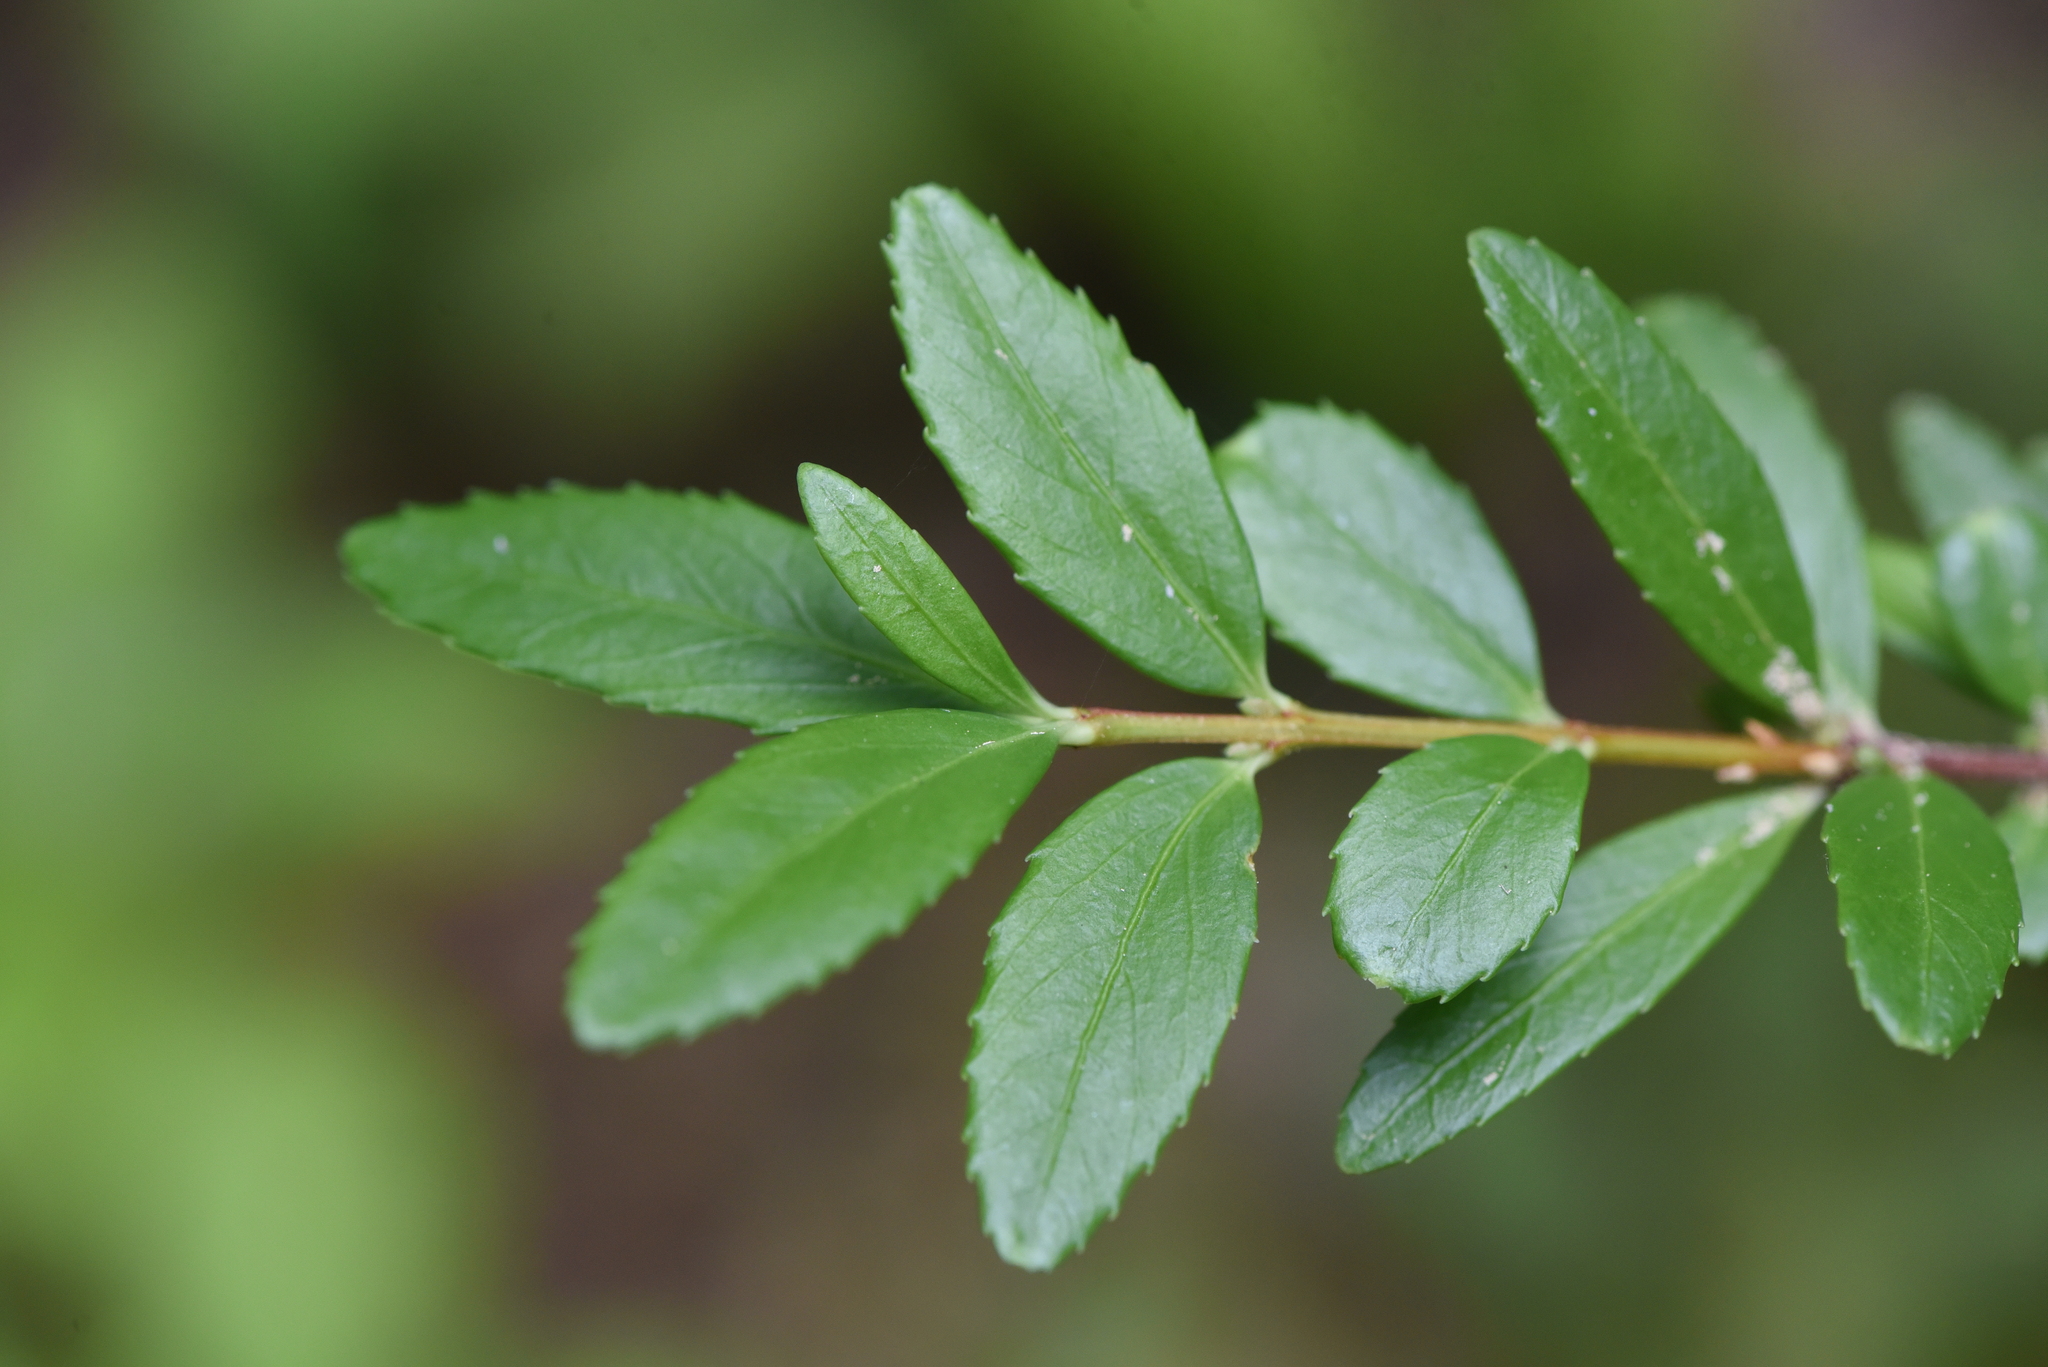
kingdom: Plantae
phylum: Tracheophyta
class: Magnoliopsida
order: Celastrales
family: Celastraceae
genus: Paxistima
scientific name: Paxistima myrsinites
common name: Mountain-lover
